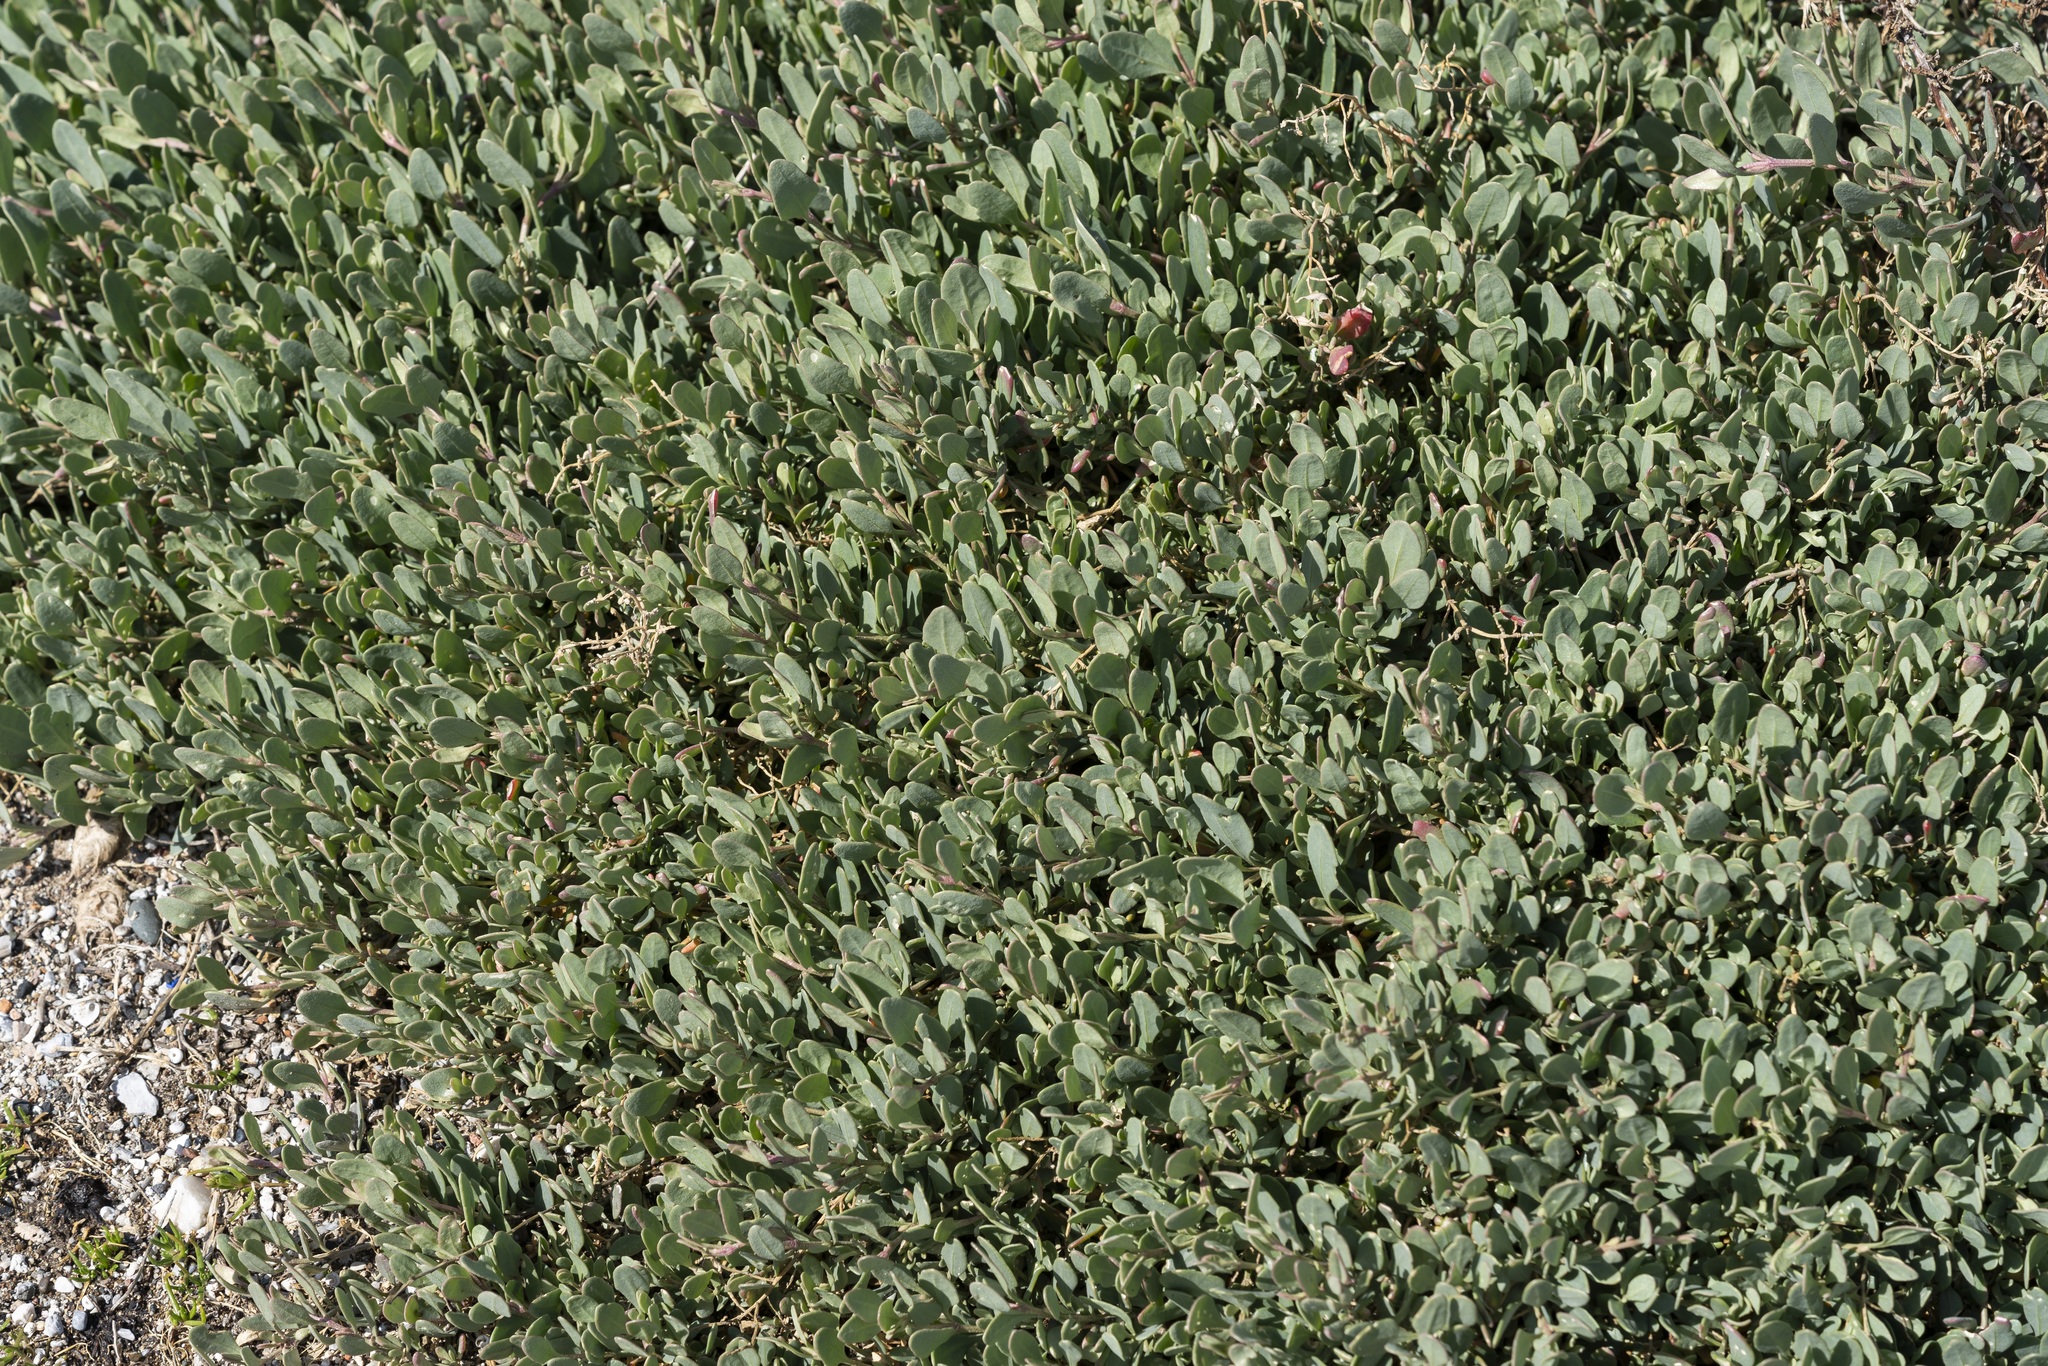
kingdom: Plantae
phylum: Tracheophyta
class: Magnoliopsida
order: Caryophyllales
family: Amaranthaceae
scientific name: Amaranthaceae
